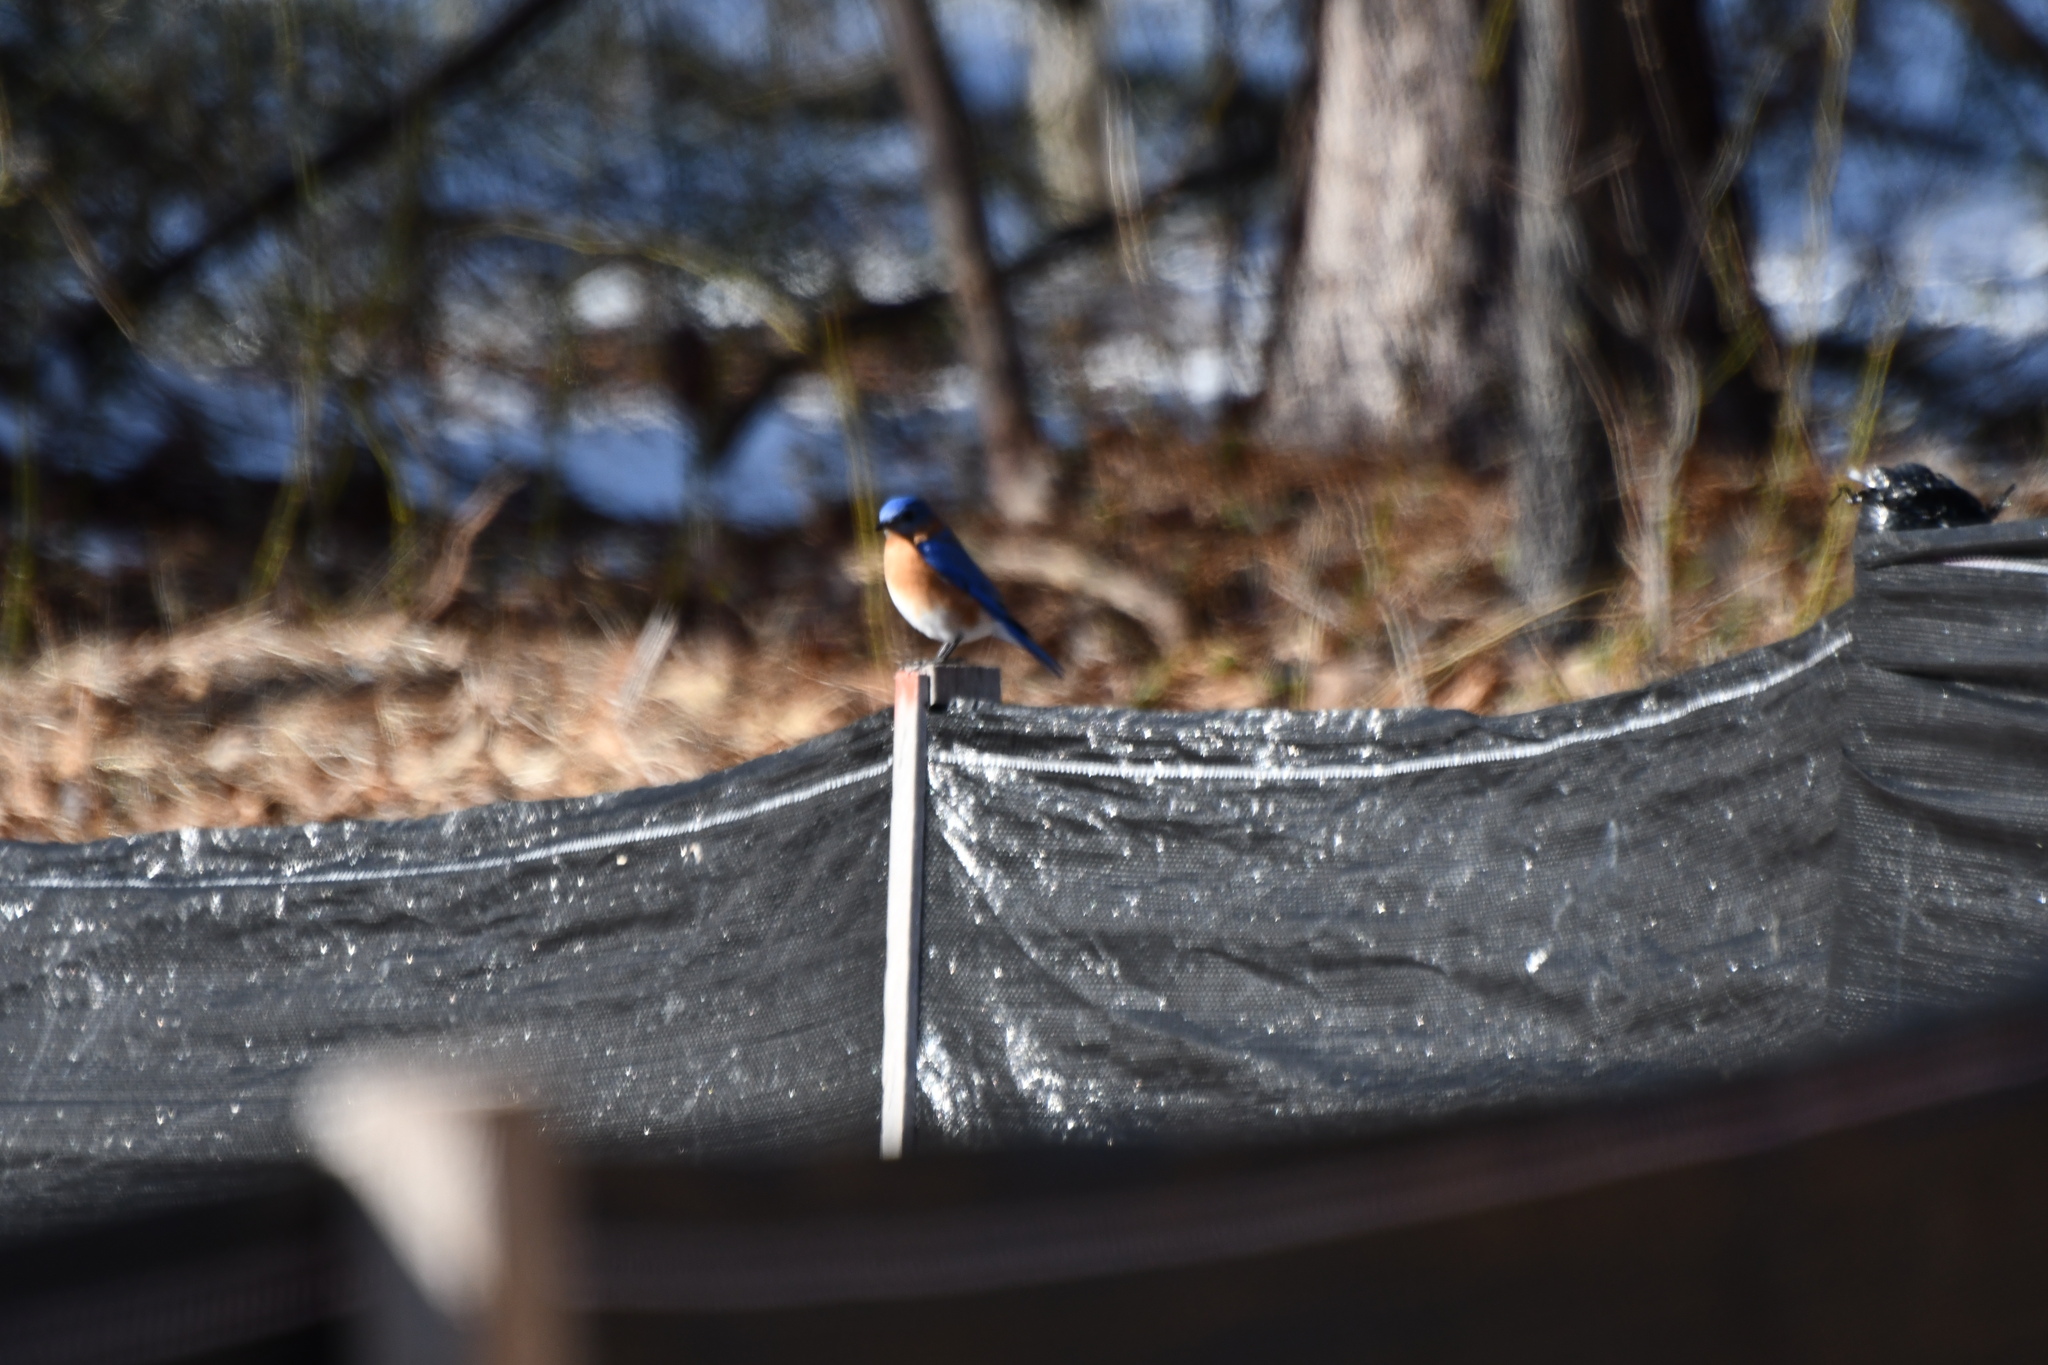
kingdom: Animalia
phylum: Chordata
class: Aves
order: Passeriformes
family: Turdidae
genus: Sialia
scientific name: Sialia sialis
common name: Eastern bluebird
